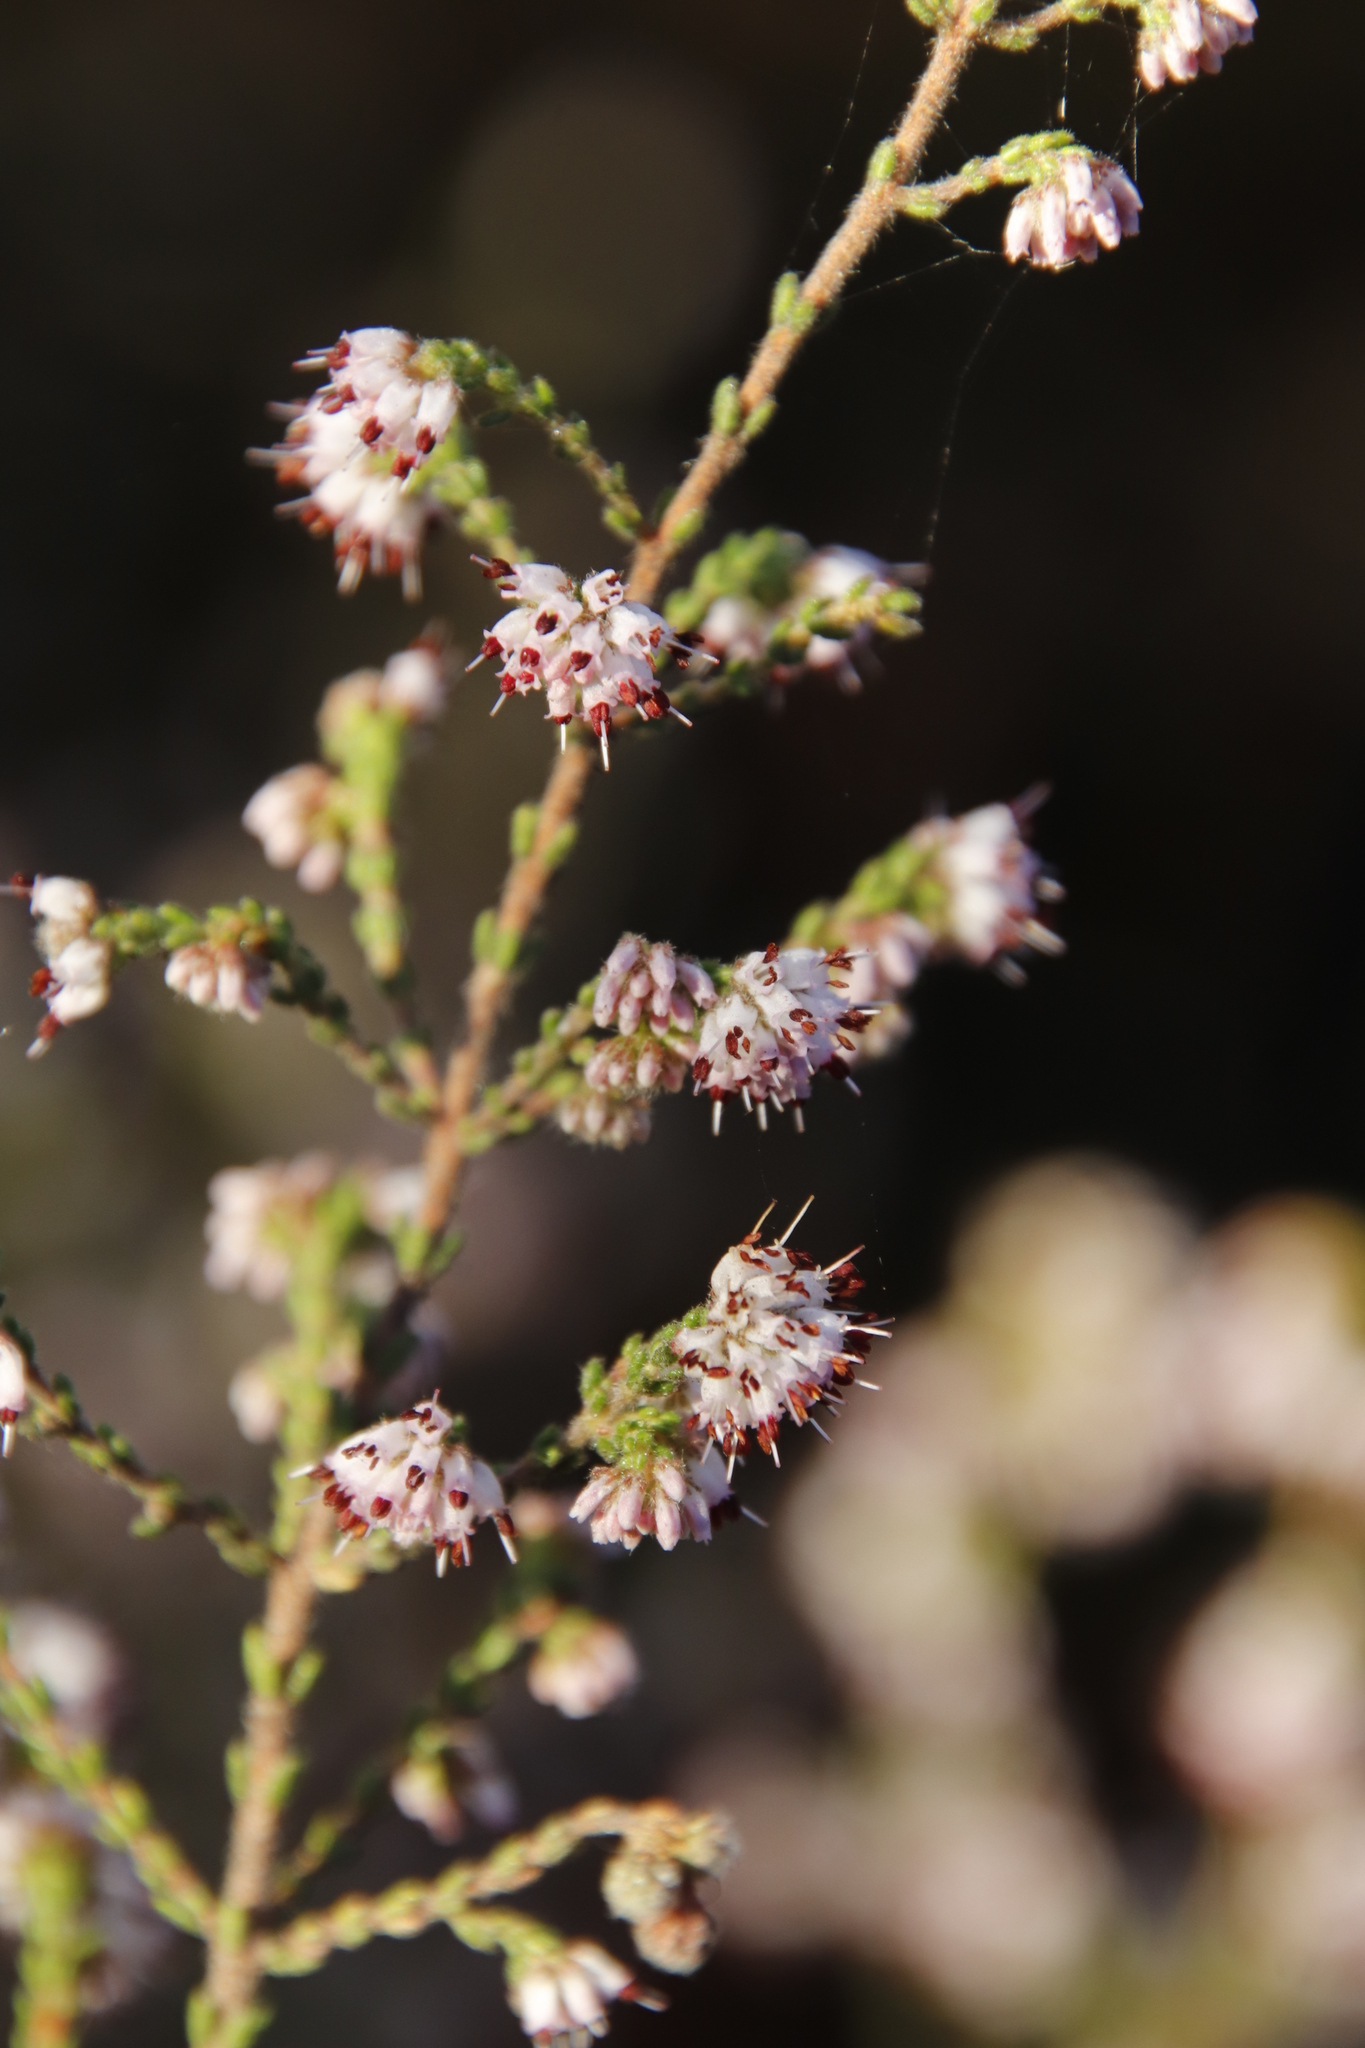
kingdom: Plantae
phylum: Tracheophyta
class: Magnoliopsida
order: Ericales
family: Ericaceae
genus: Erica
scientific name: Erica ericoides
